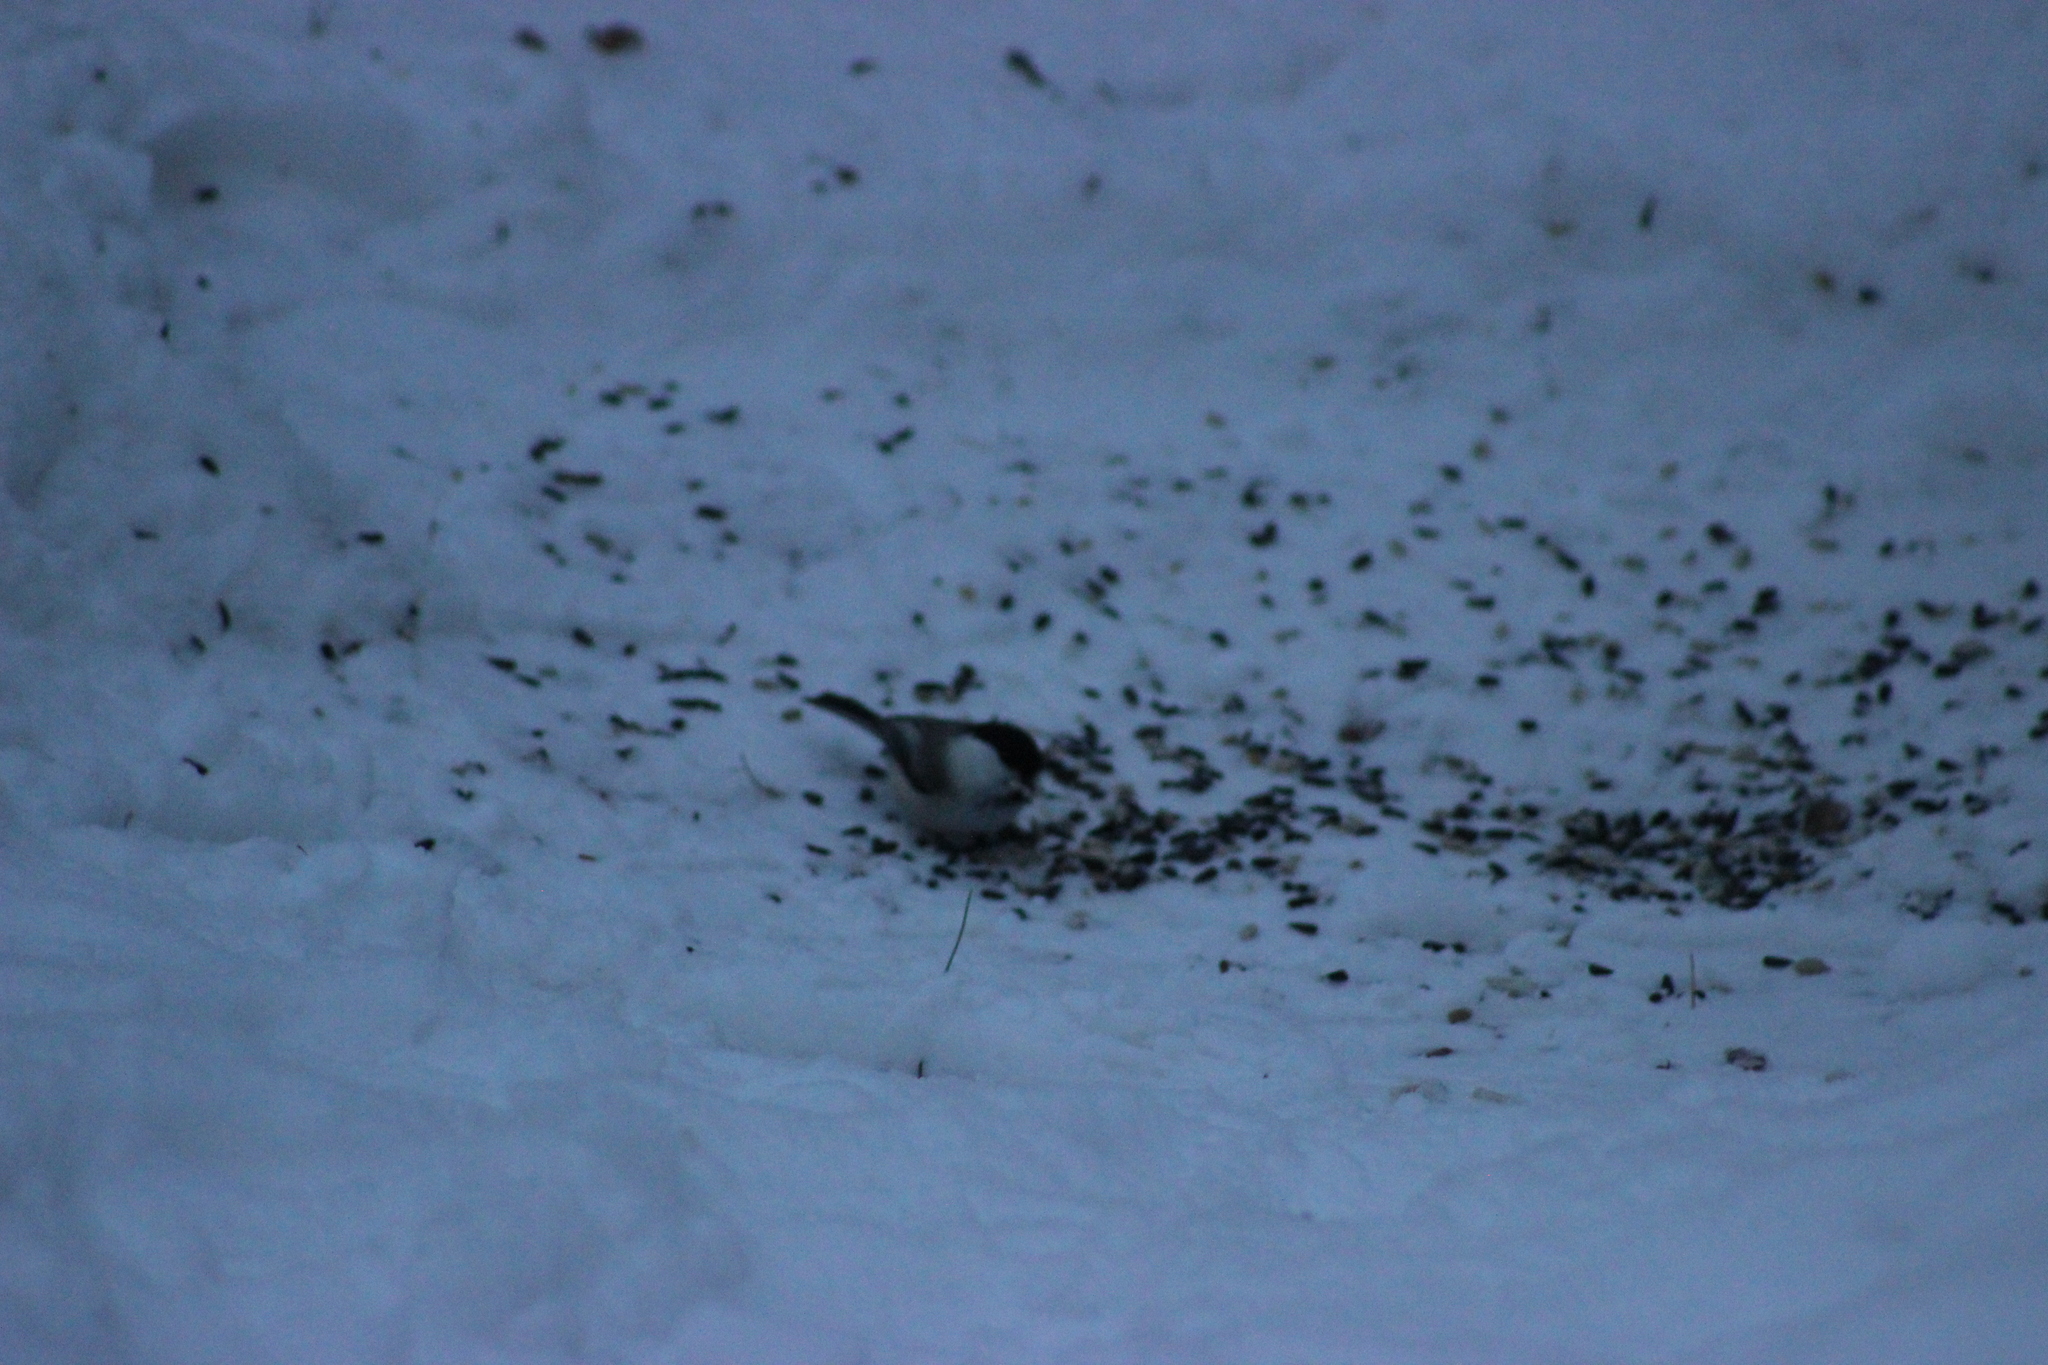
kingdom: Animalia
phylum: Chordata
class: Aves
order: Passeriformes
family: Paridae
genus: Poecile
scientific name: Poecile montanus
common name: Willow tit
